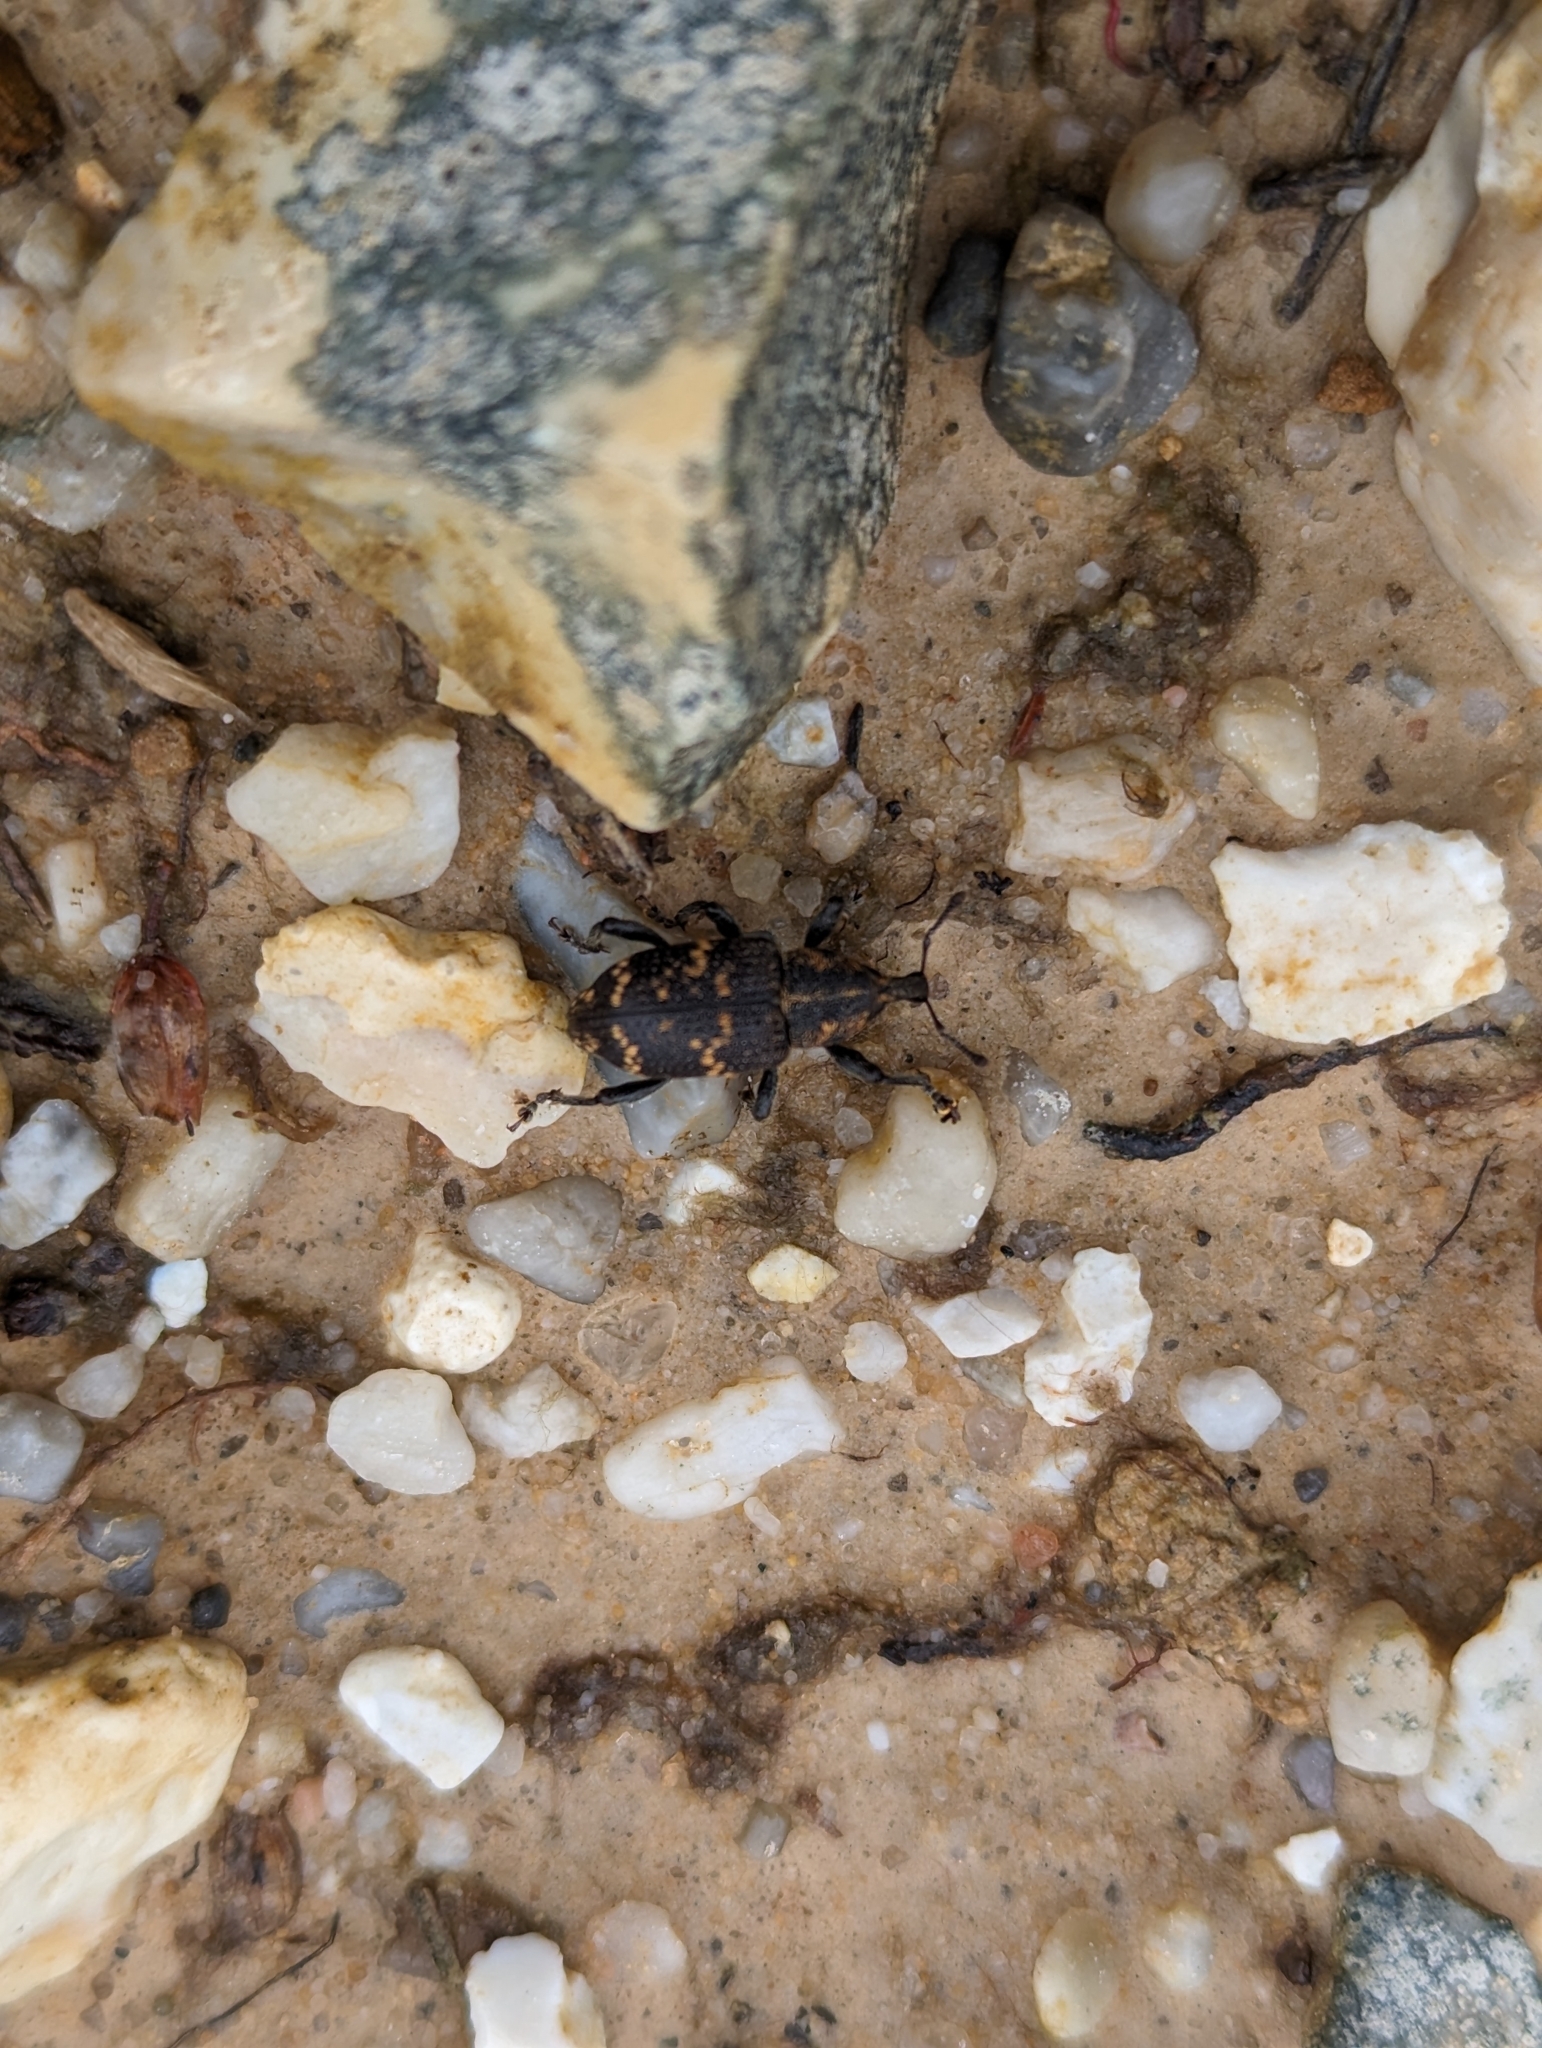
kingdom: Animalia
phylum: Arthropoda
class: Insecta
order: Coleoptera
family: Curculionidae
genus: Hylobius
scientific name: Hylobius abietis
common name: Large pine weevil
